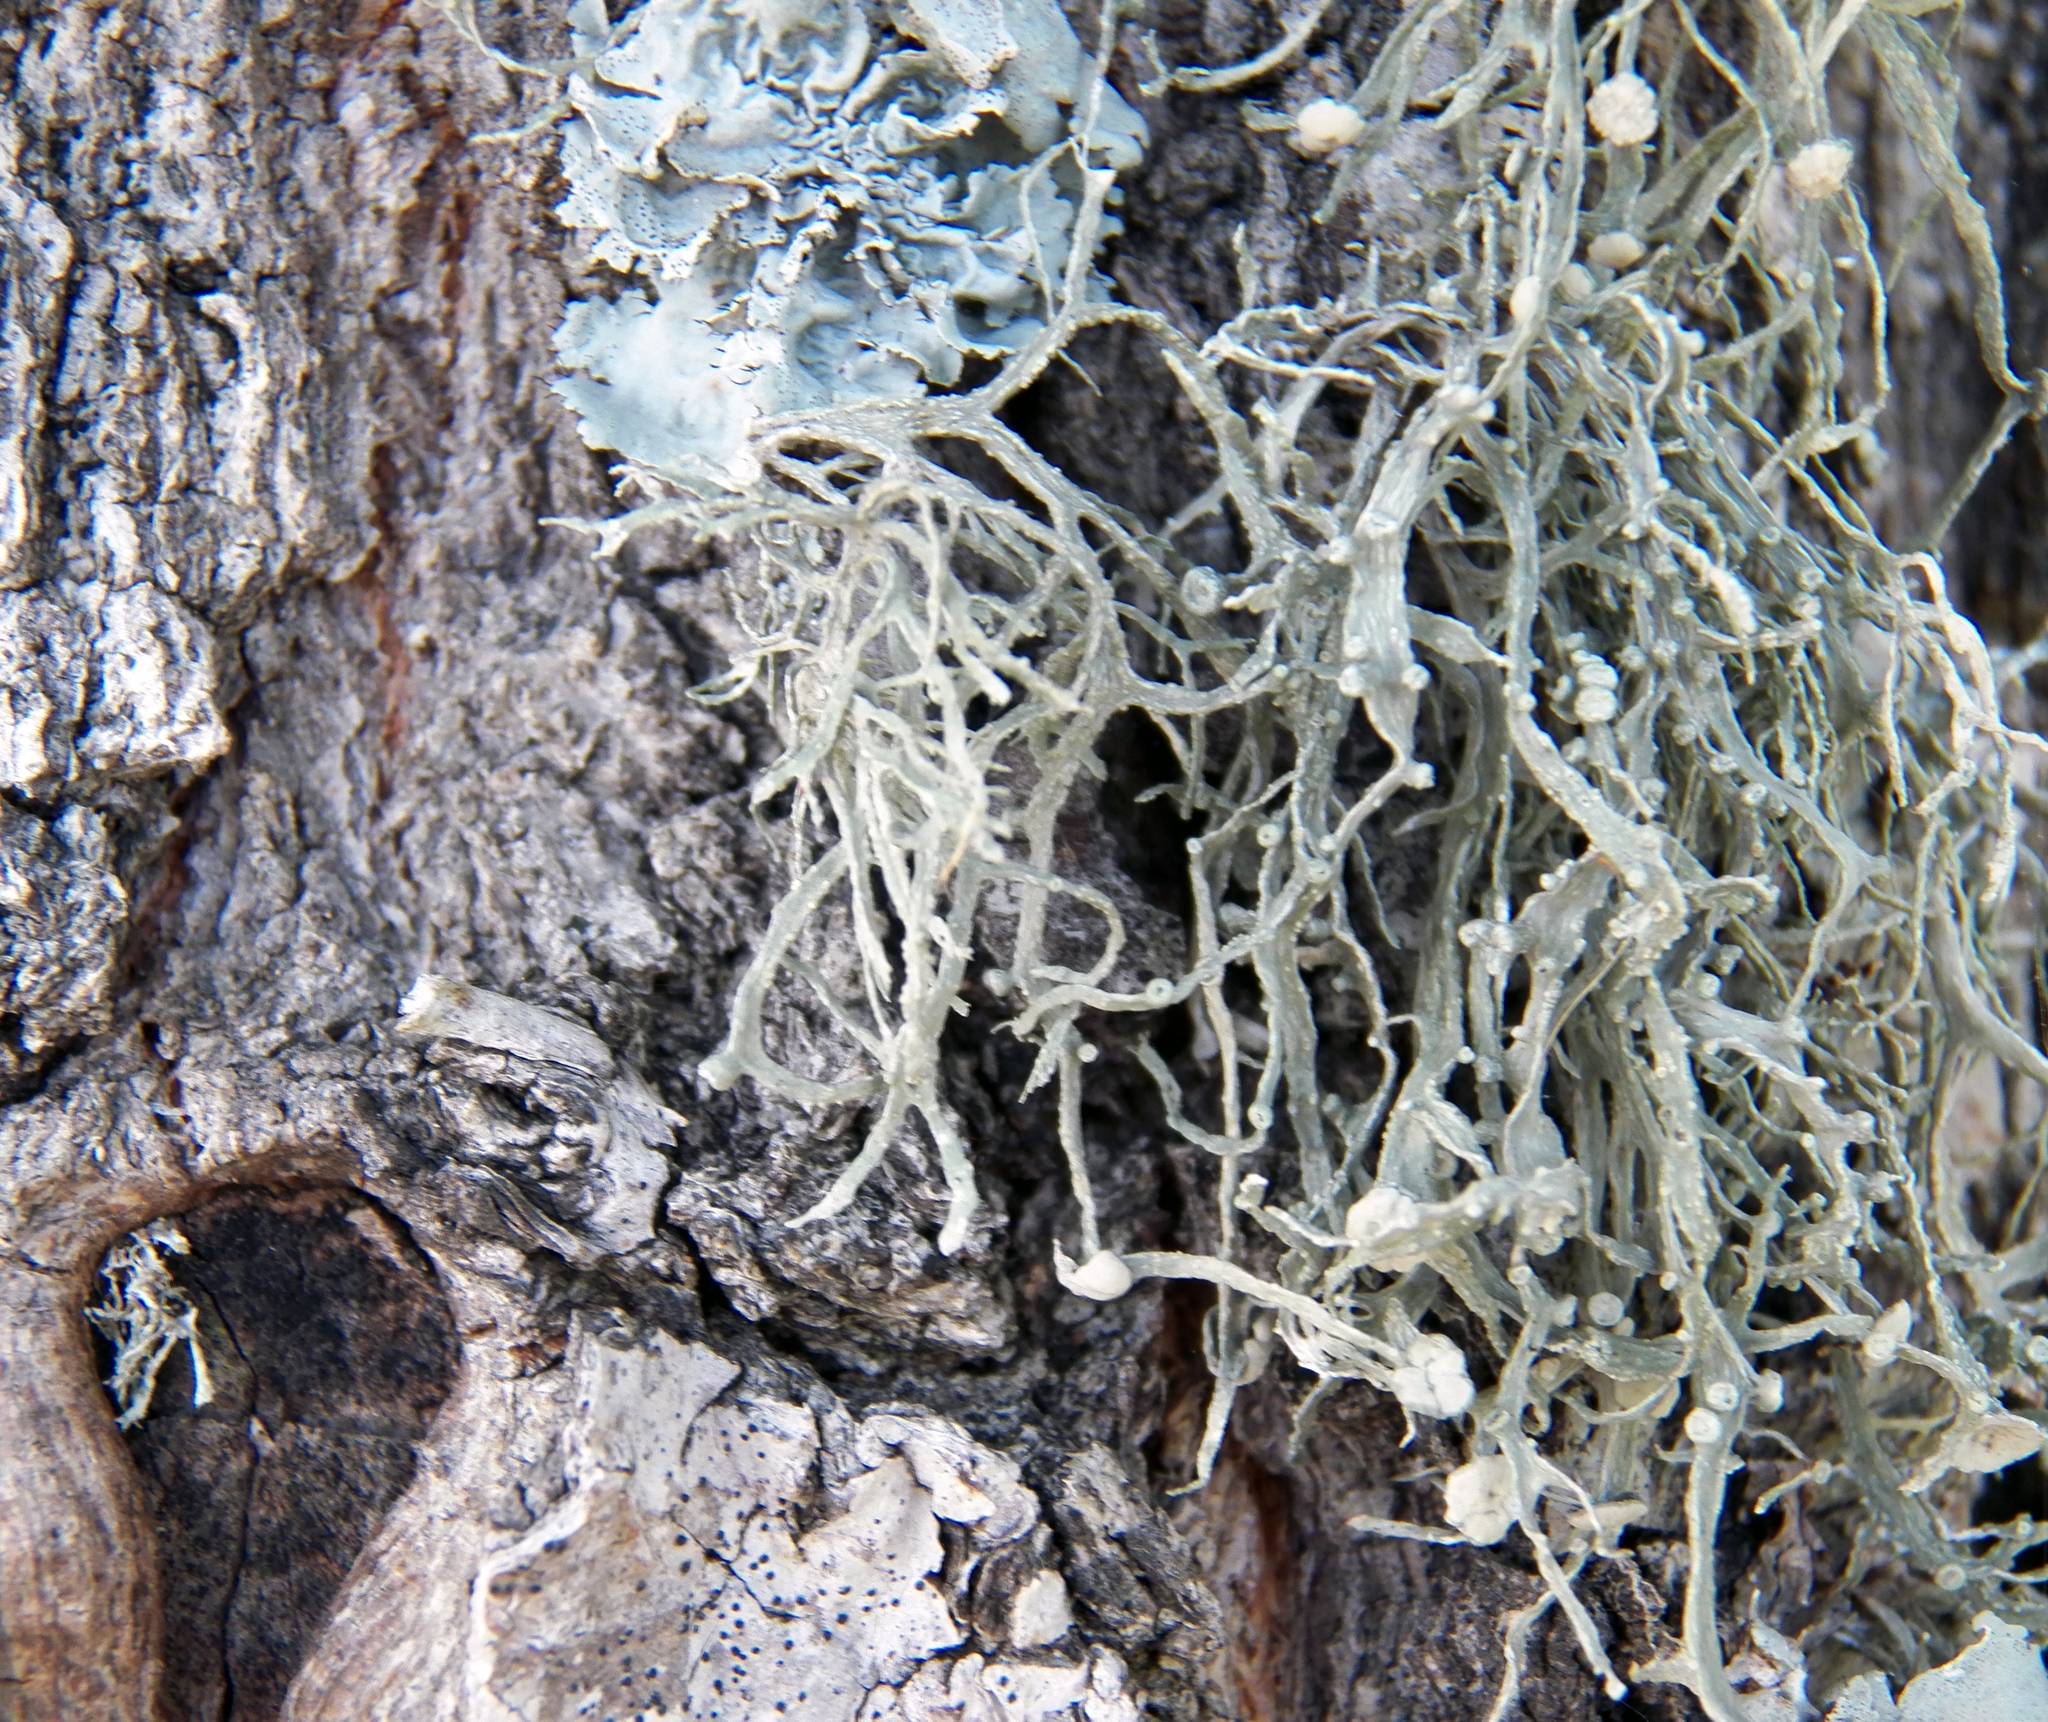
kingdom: Fungi
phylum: Ascomycota
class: Lecanoromycetes
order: Lecanorales
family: Ramalinaceae
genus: Ramalina
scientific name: Ramalina farinacea
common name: Farinose cartilage lichen
